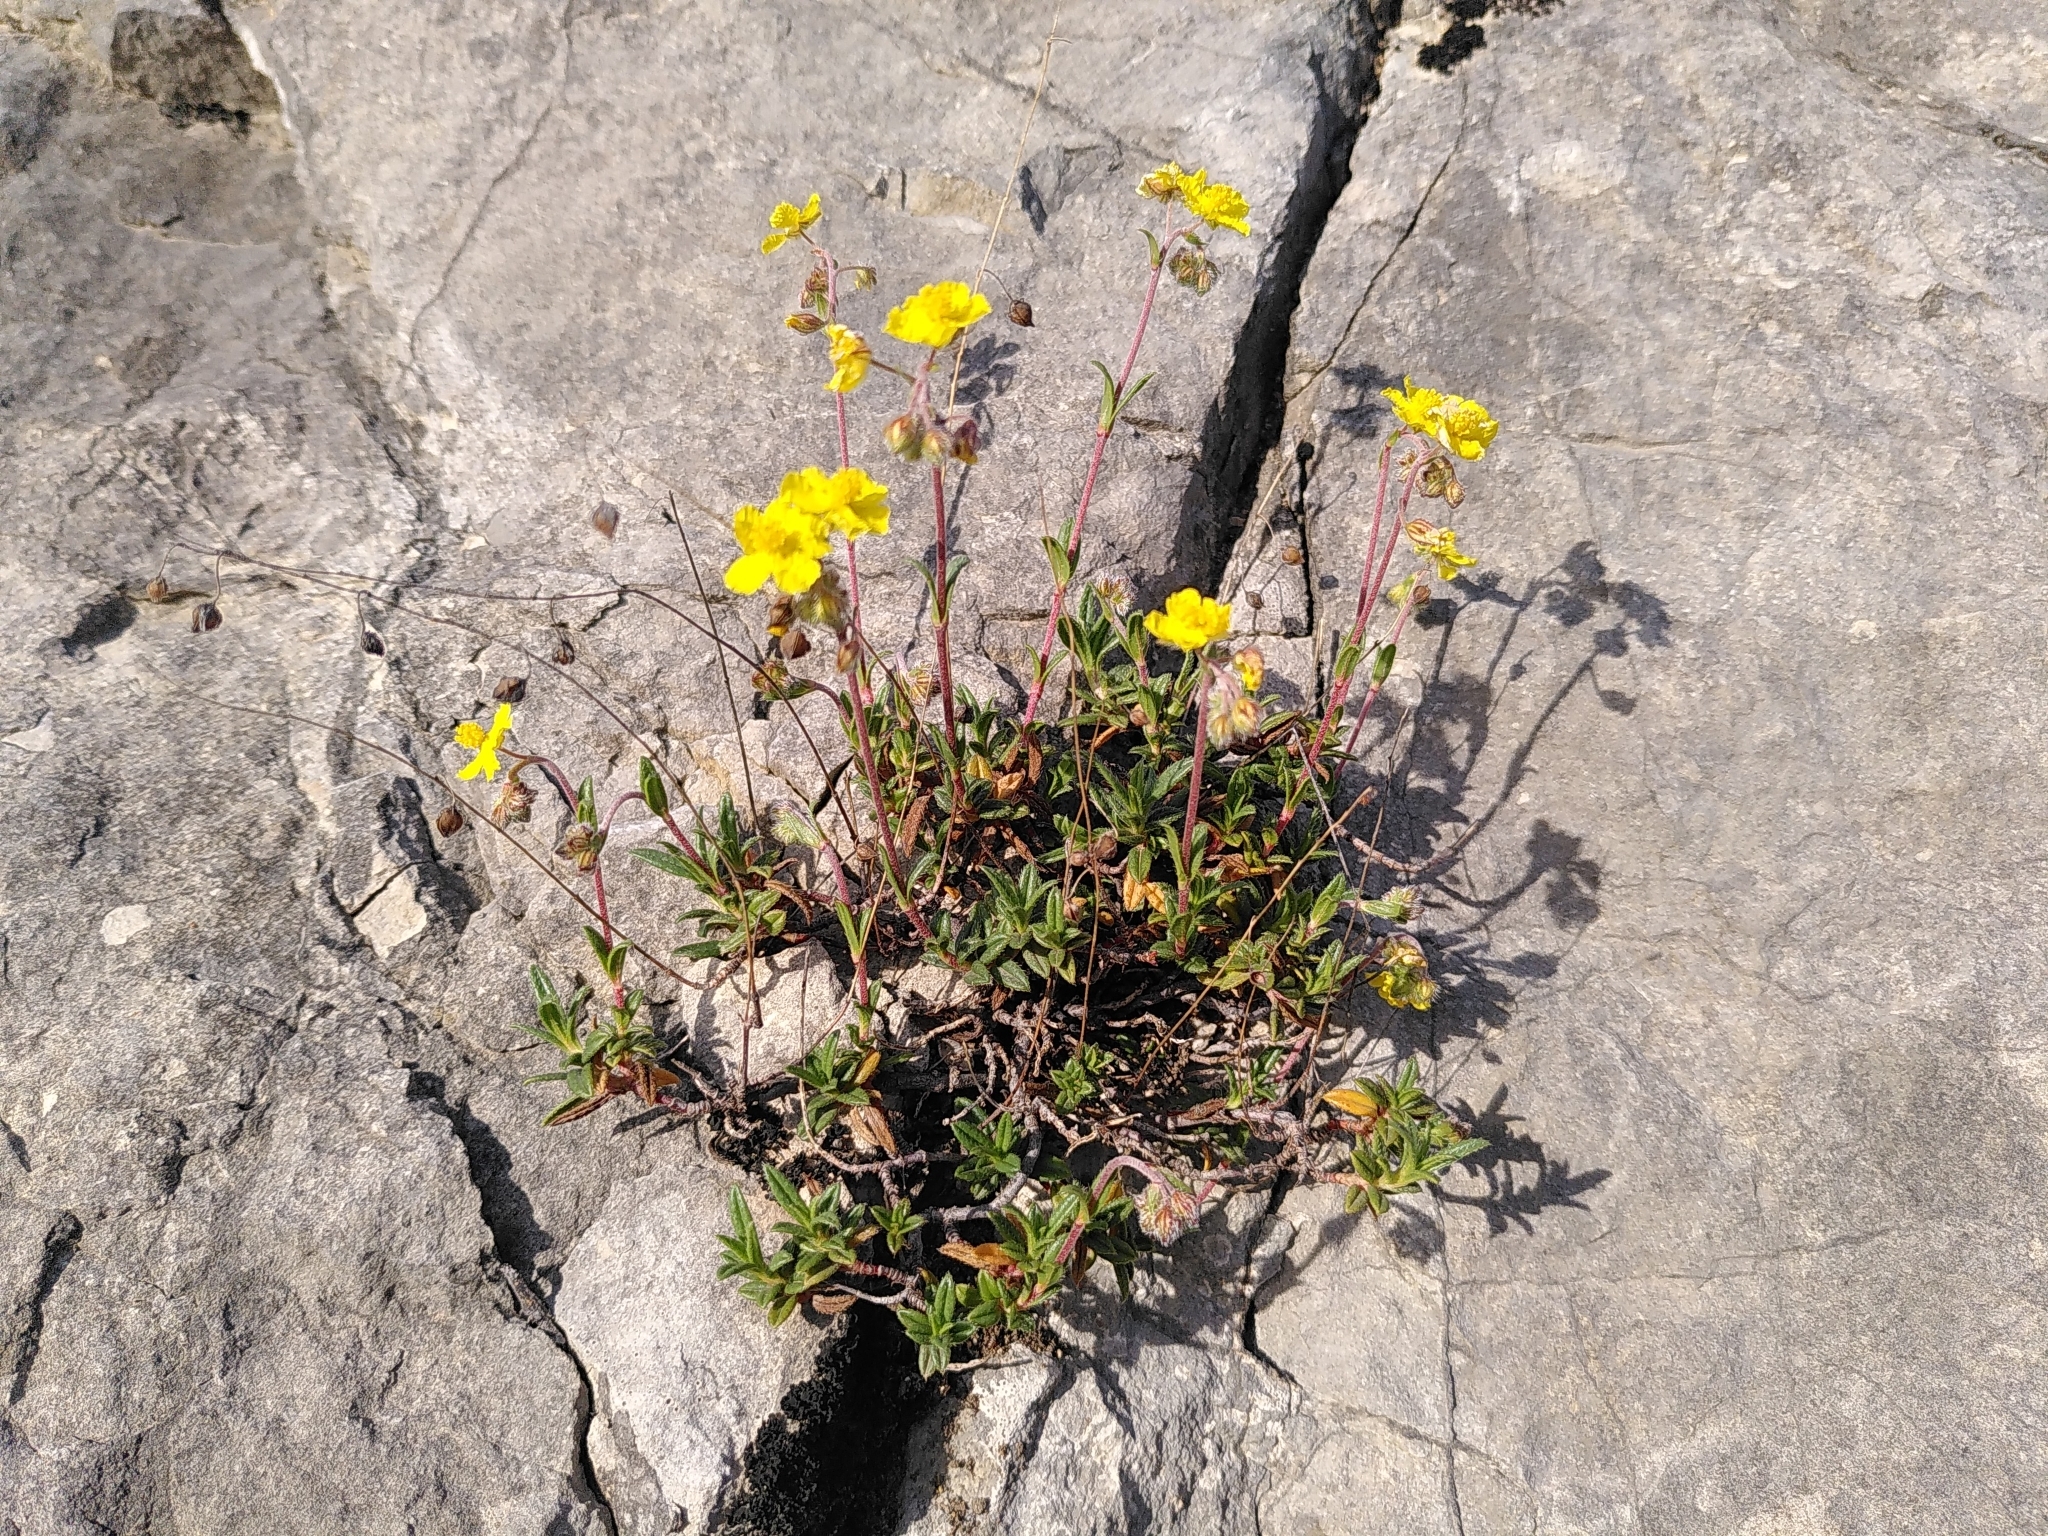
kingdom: Plantae
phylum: Tracheophyta
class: Magnoliopsida
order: Malvales
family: Cistaceae
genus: Helianthemum
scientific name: Helianthemum oelandicum
